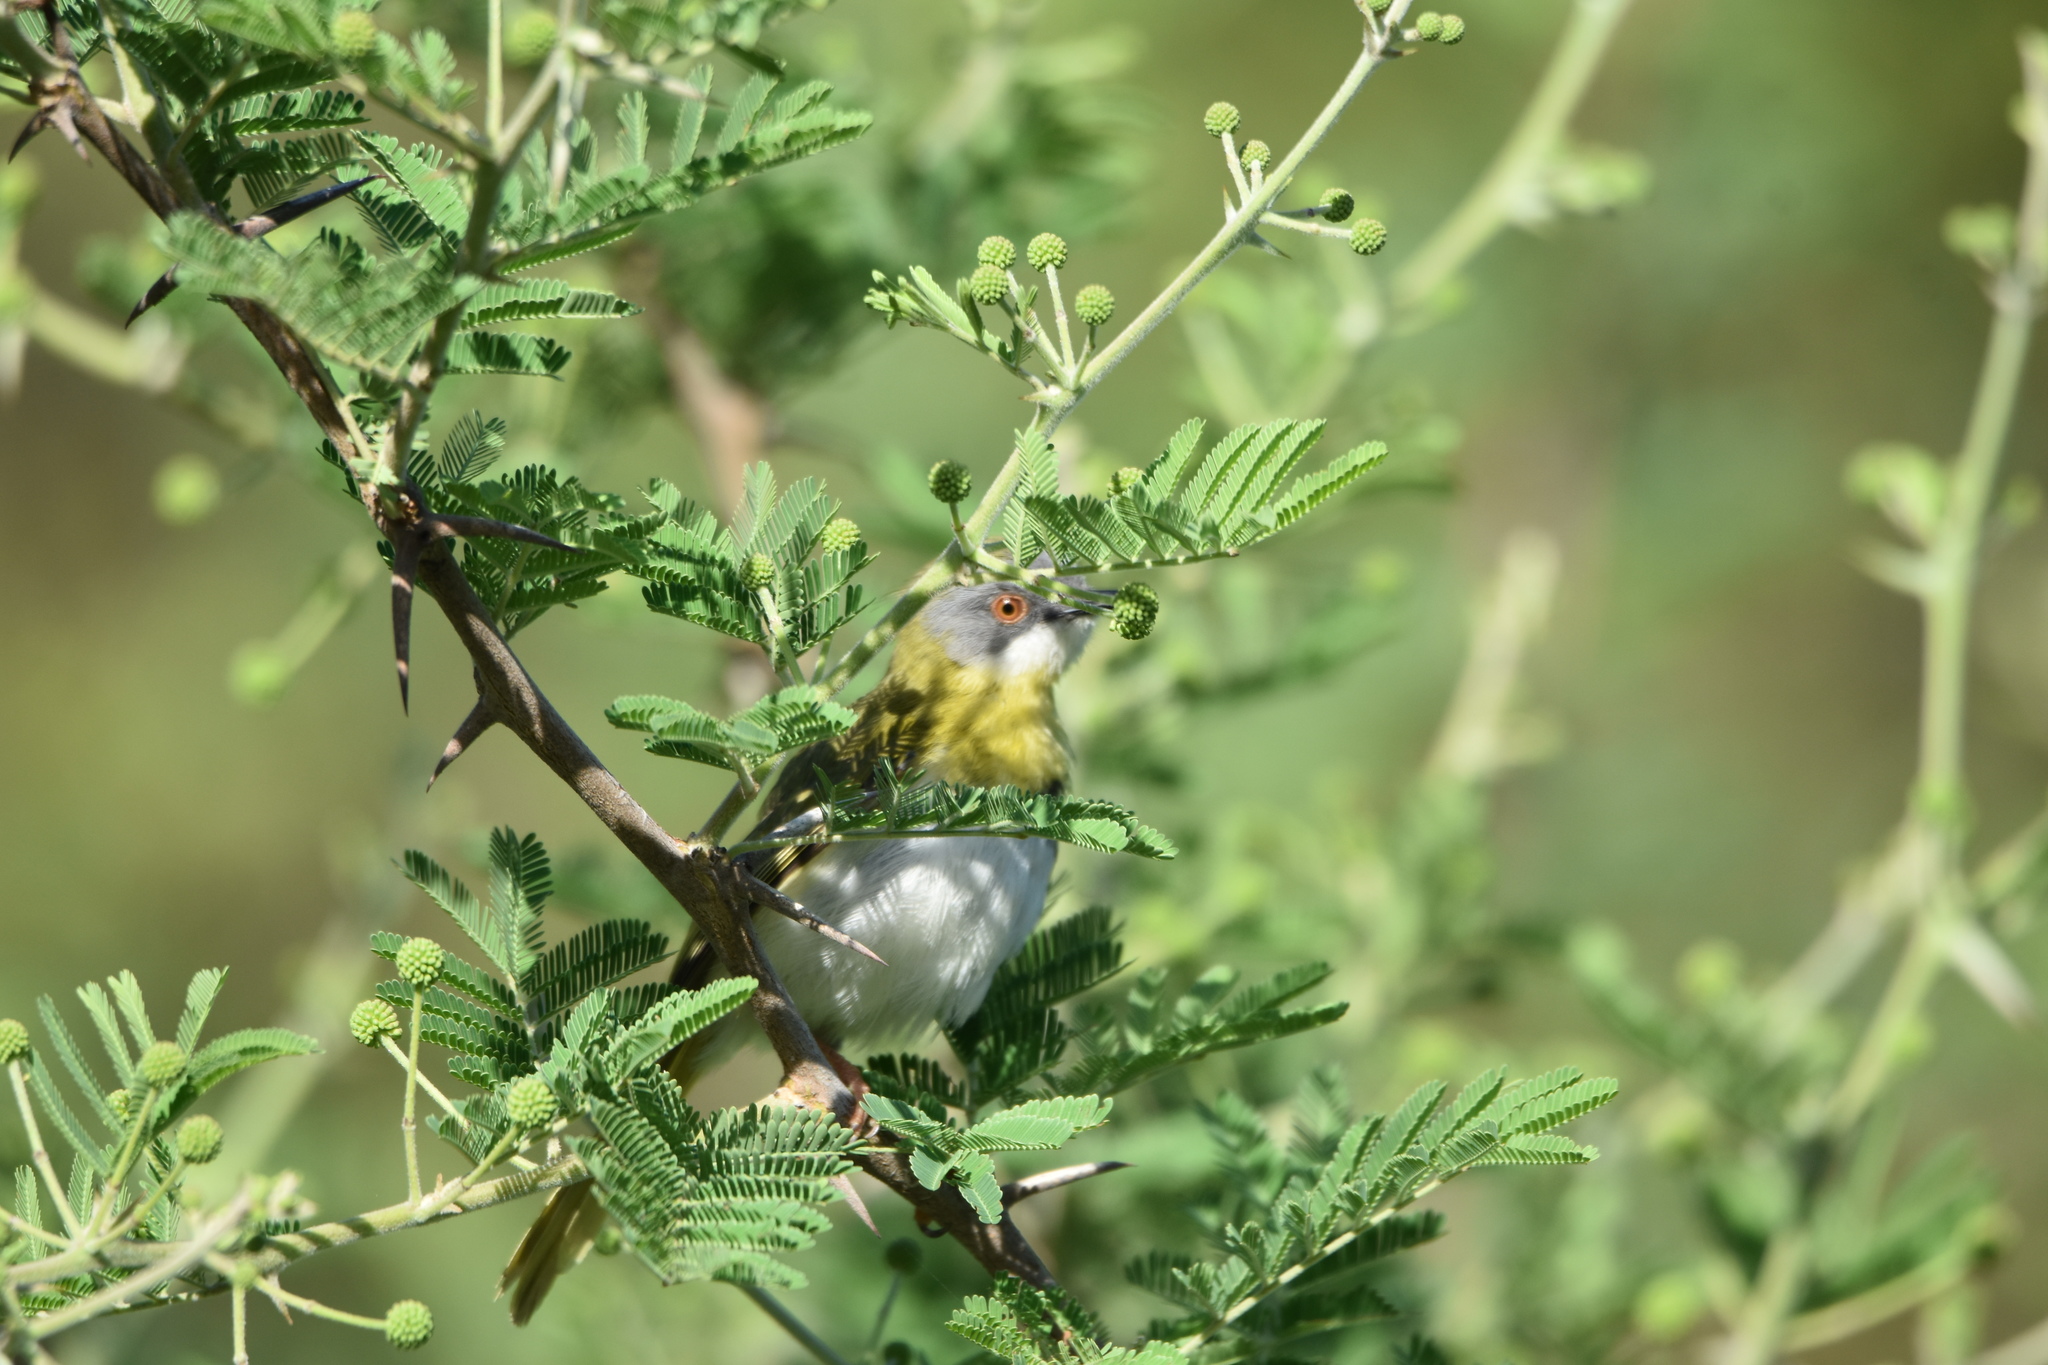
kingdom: Animalia
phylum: Chordata
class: Aves
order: Passeriformes
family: Cisticolidae
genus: Apalis
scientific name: Apalis flavida
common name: Yellow-breasted apalis
